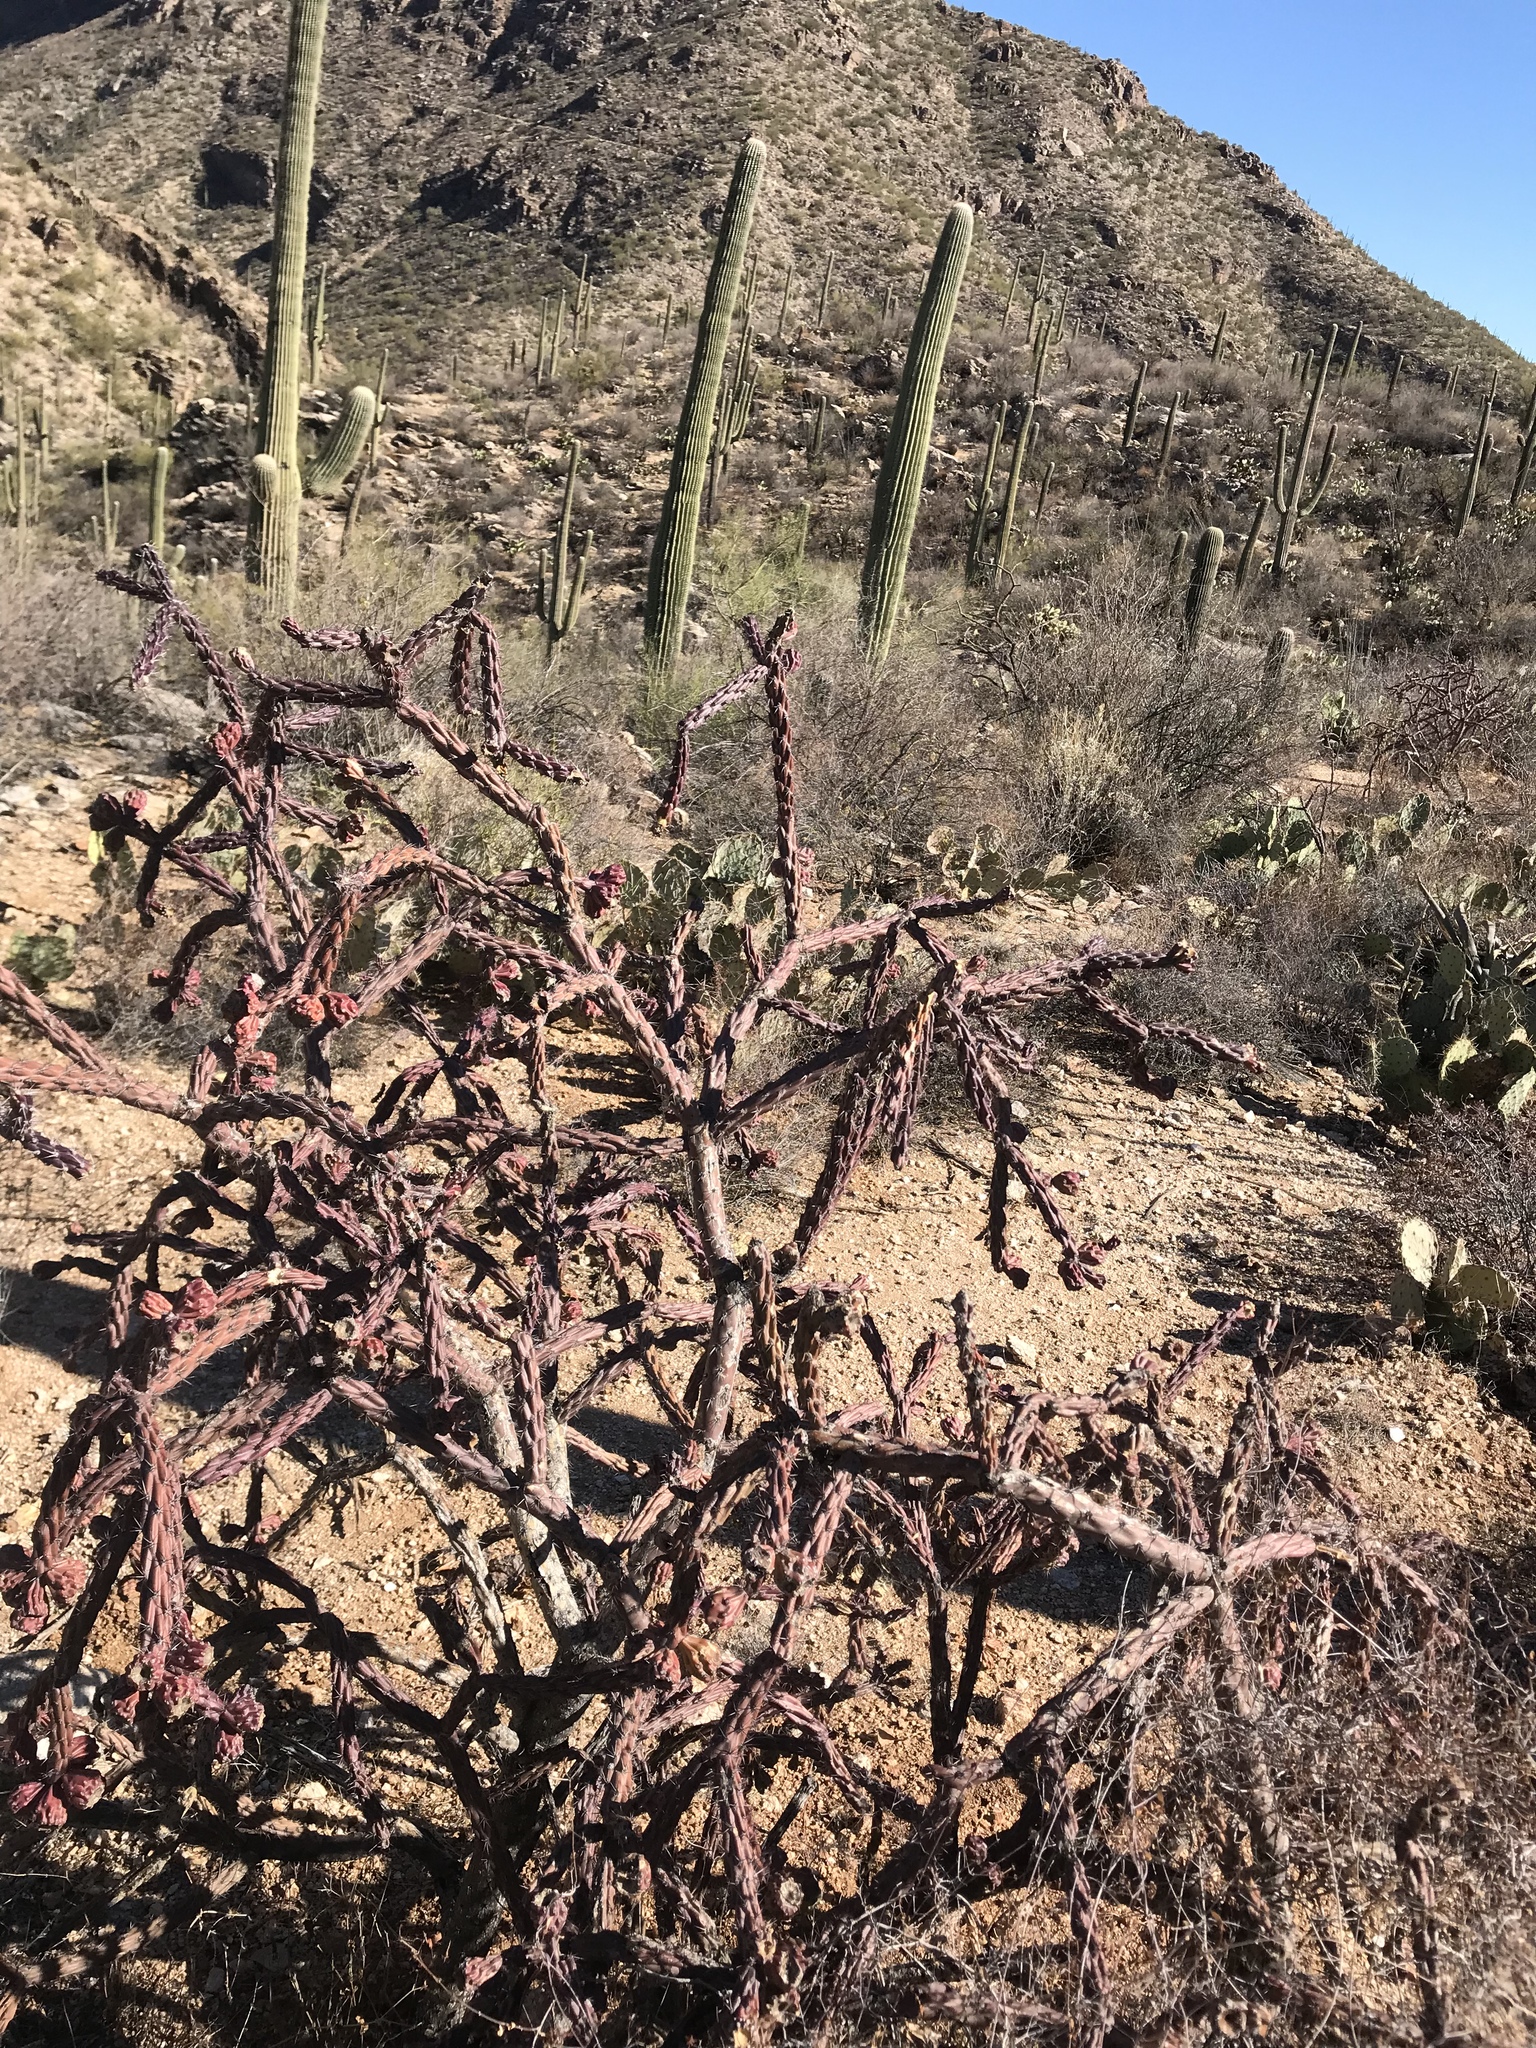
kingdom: Plantae
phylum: Tracheophyta
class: Magnoliopsida
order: Caryophyllales
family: Cactaceae
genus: Cylindropuntia
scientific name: Cylindropuntia thurberi
